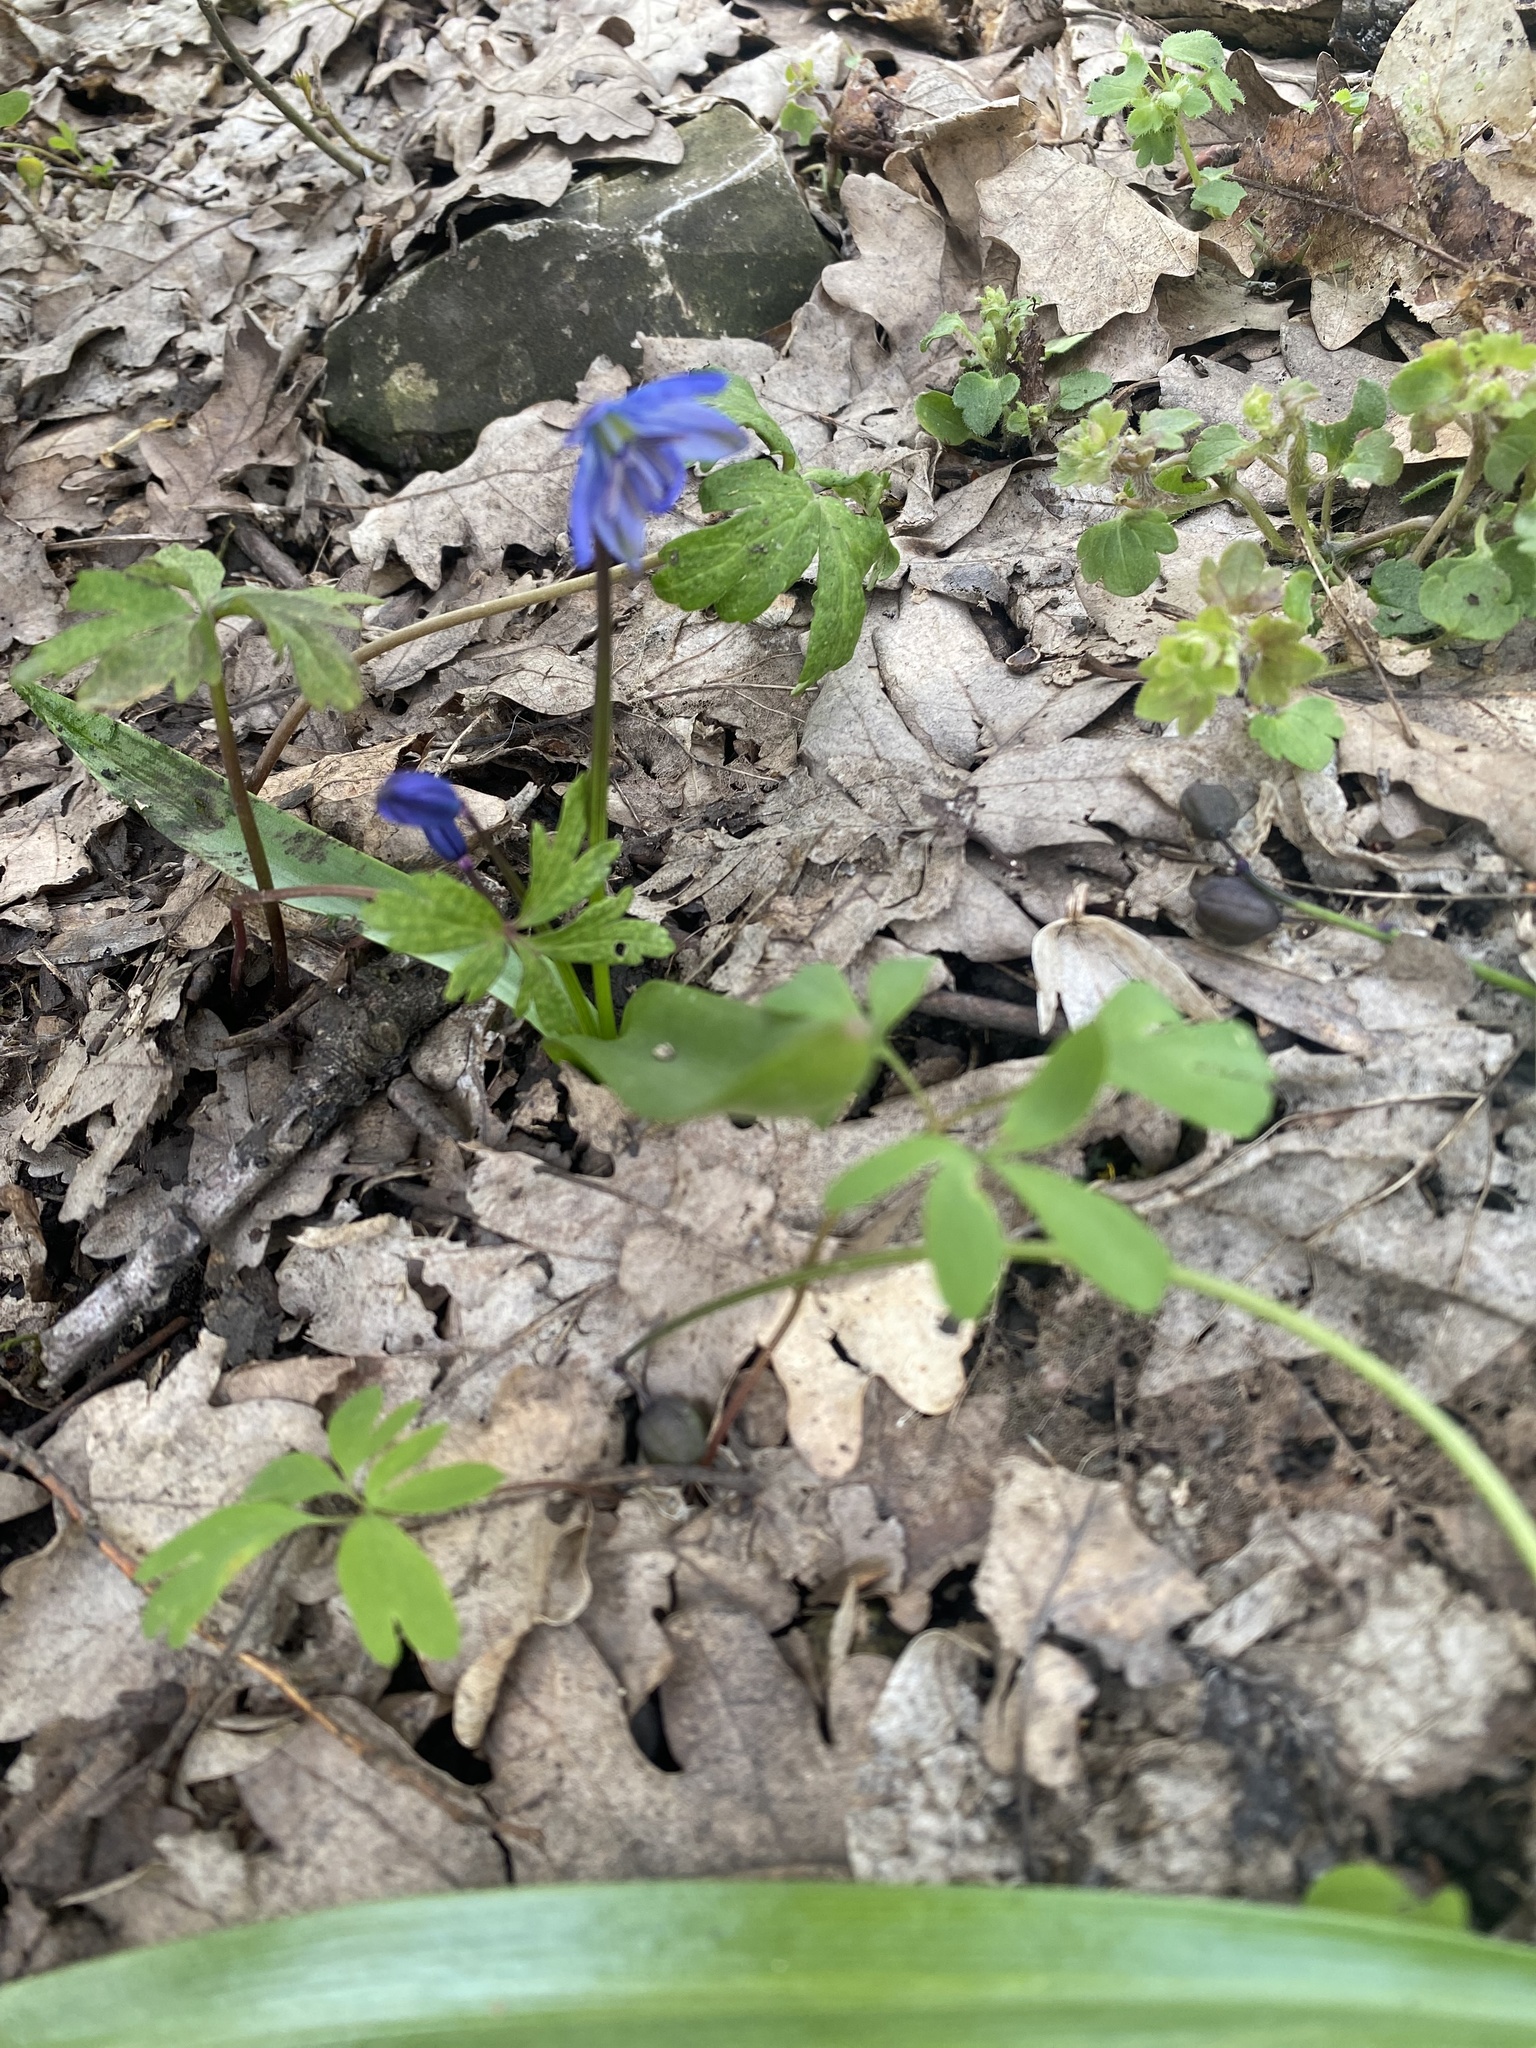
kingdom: Plantae
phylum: Tracheophyta
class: Liliopsida
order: Asparagales
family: Asparagaceae
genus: Scilla
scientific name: Scilla siberica
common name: Siberian squill
